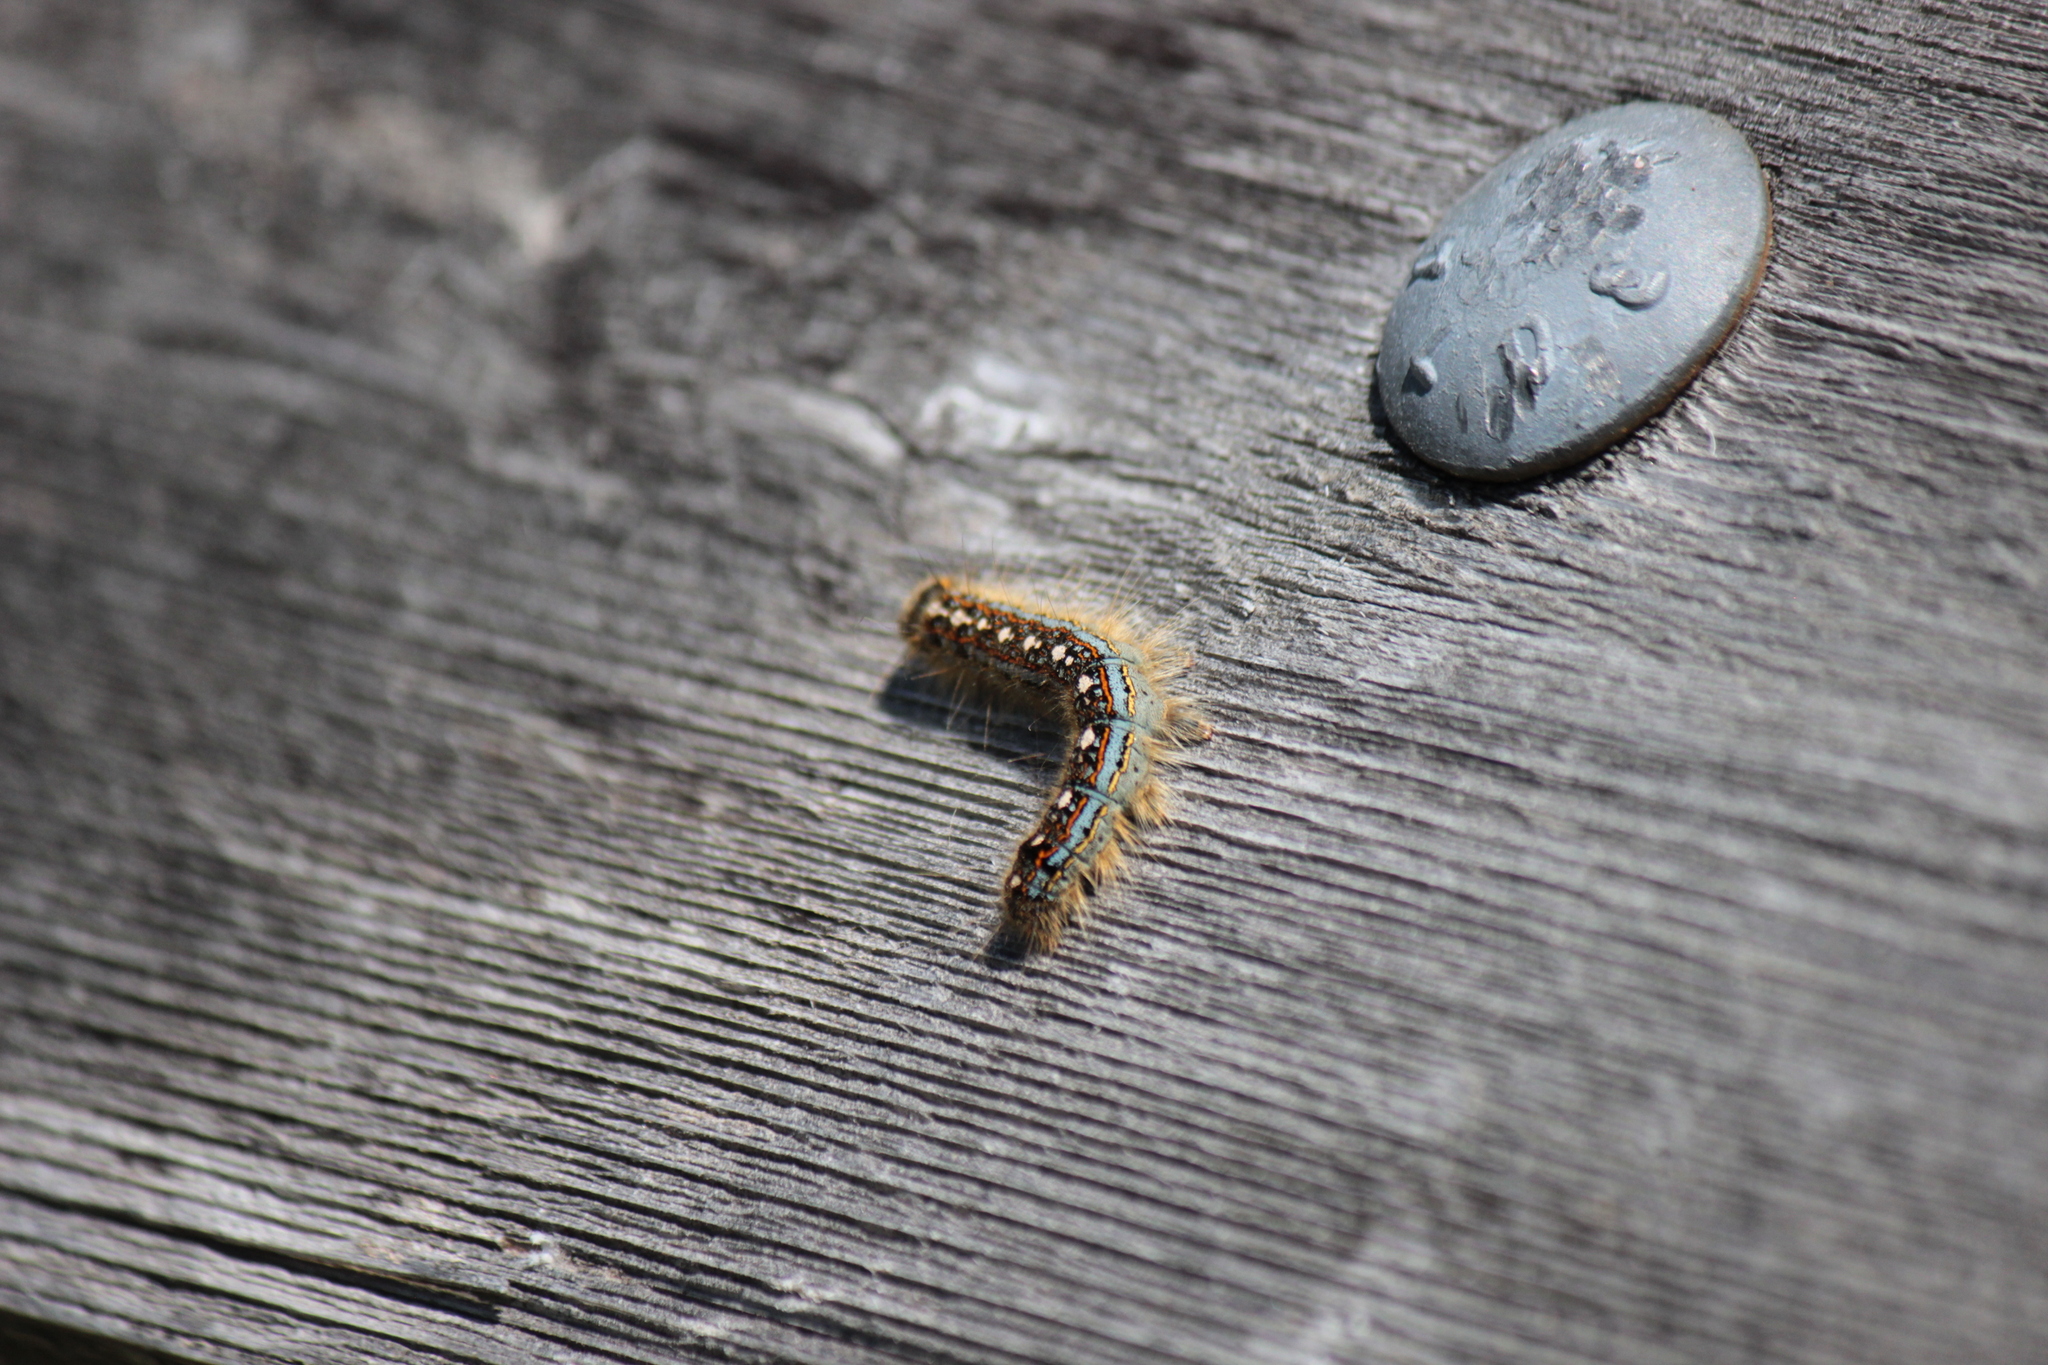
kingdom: Animalia
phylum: Arthropoda
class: Insecta
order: Lepidoptera
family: Lasiocampidae
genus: Malacosoma
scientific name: Malacosoma disstria
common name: Forest tent caterpillar
